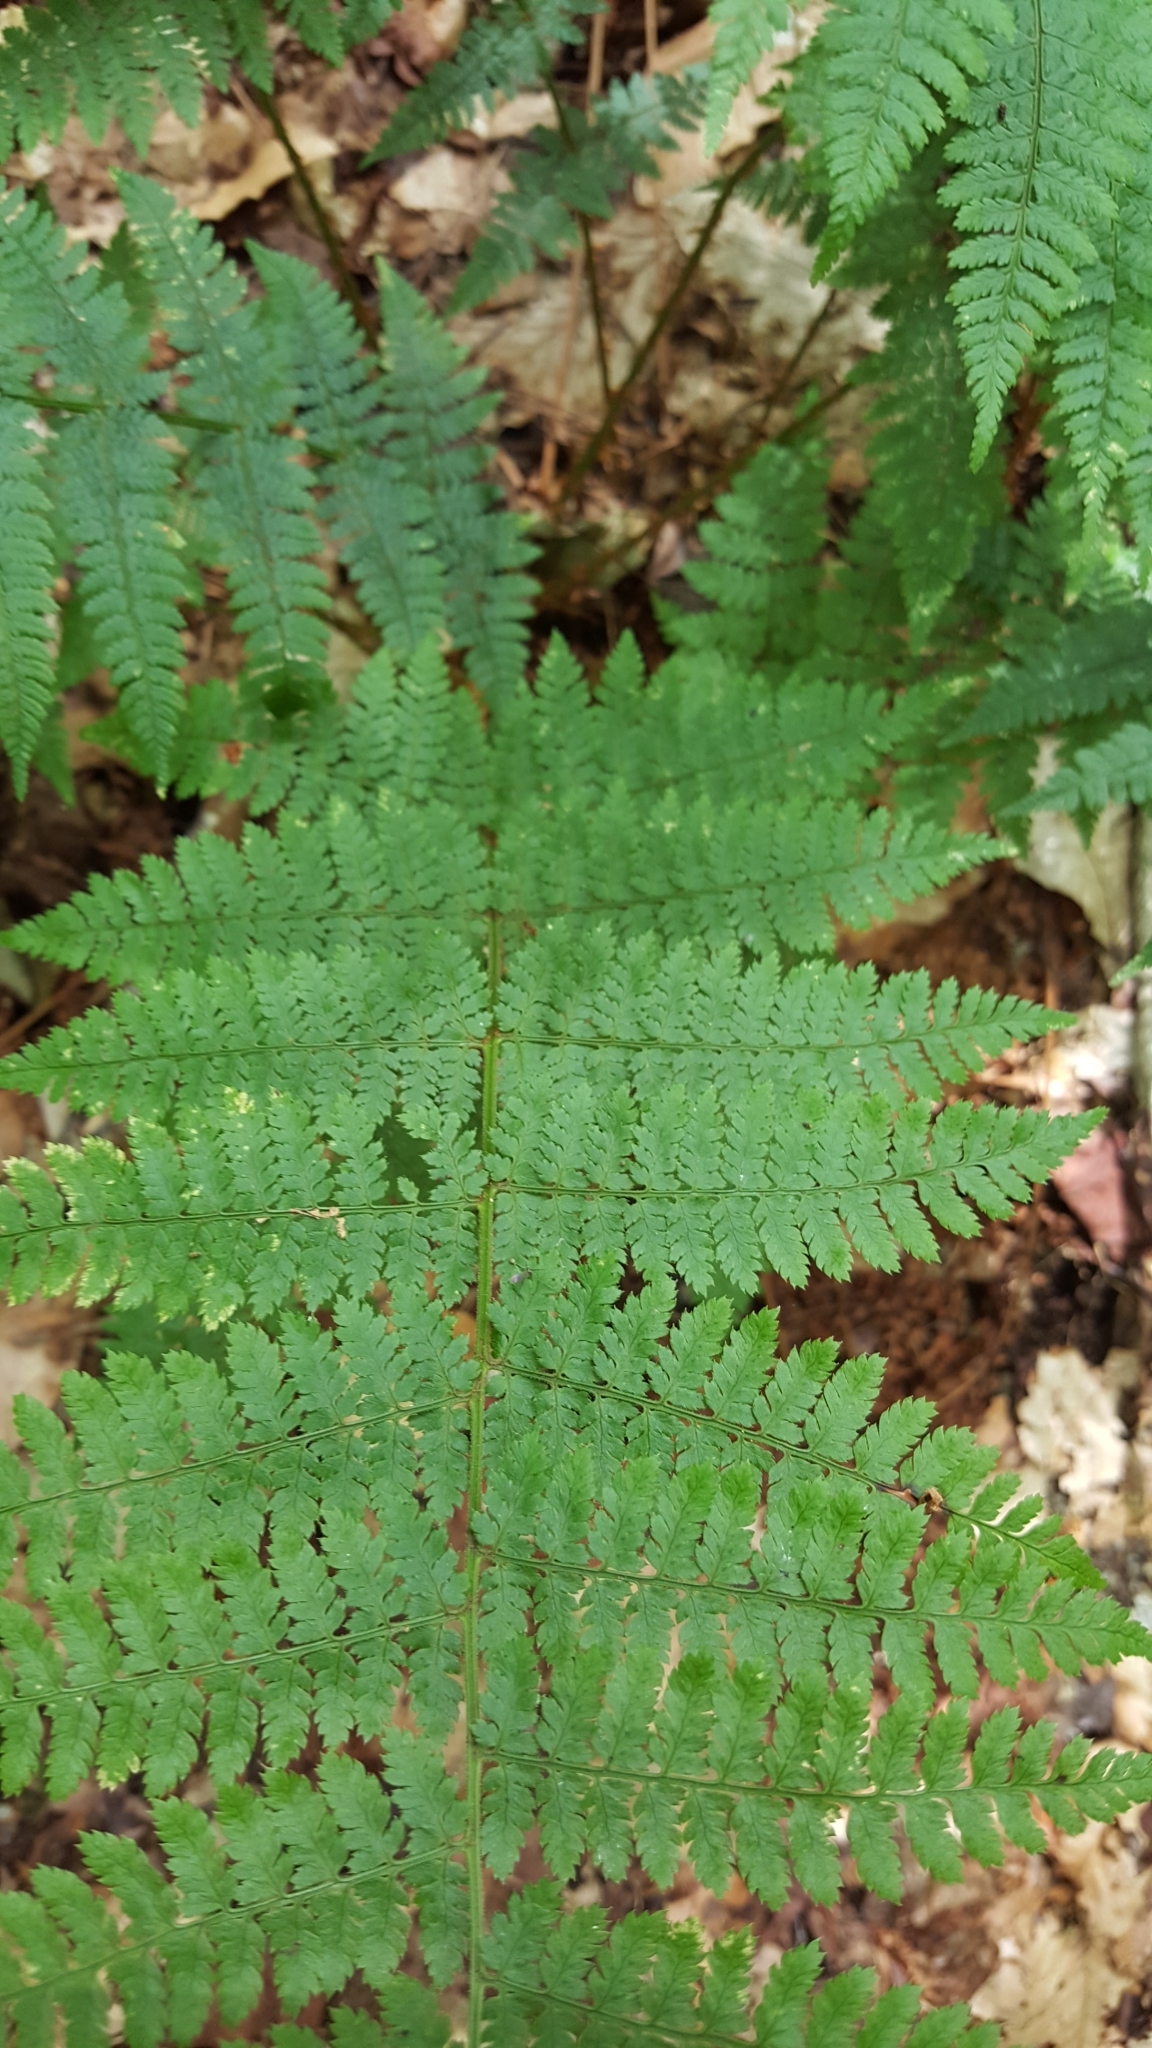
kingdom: Plantae
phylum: Tracheophyta
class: Polypodiopsida
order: Polypodiales
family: Dryopteridaceae
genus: Dryopteris
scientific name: Dryopteris intermedia
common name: Evergreen wood fern
